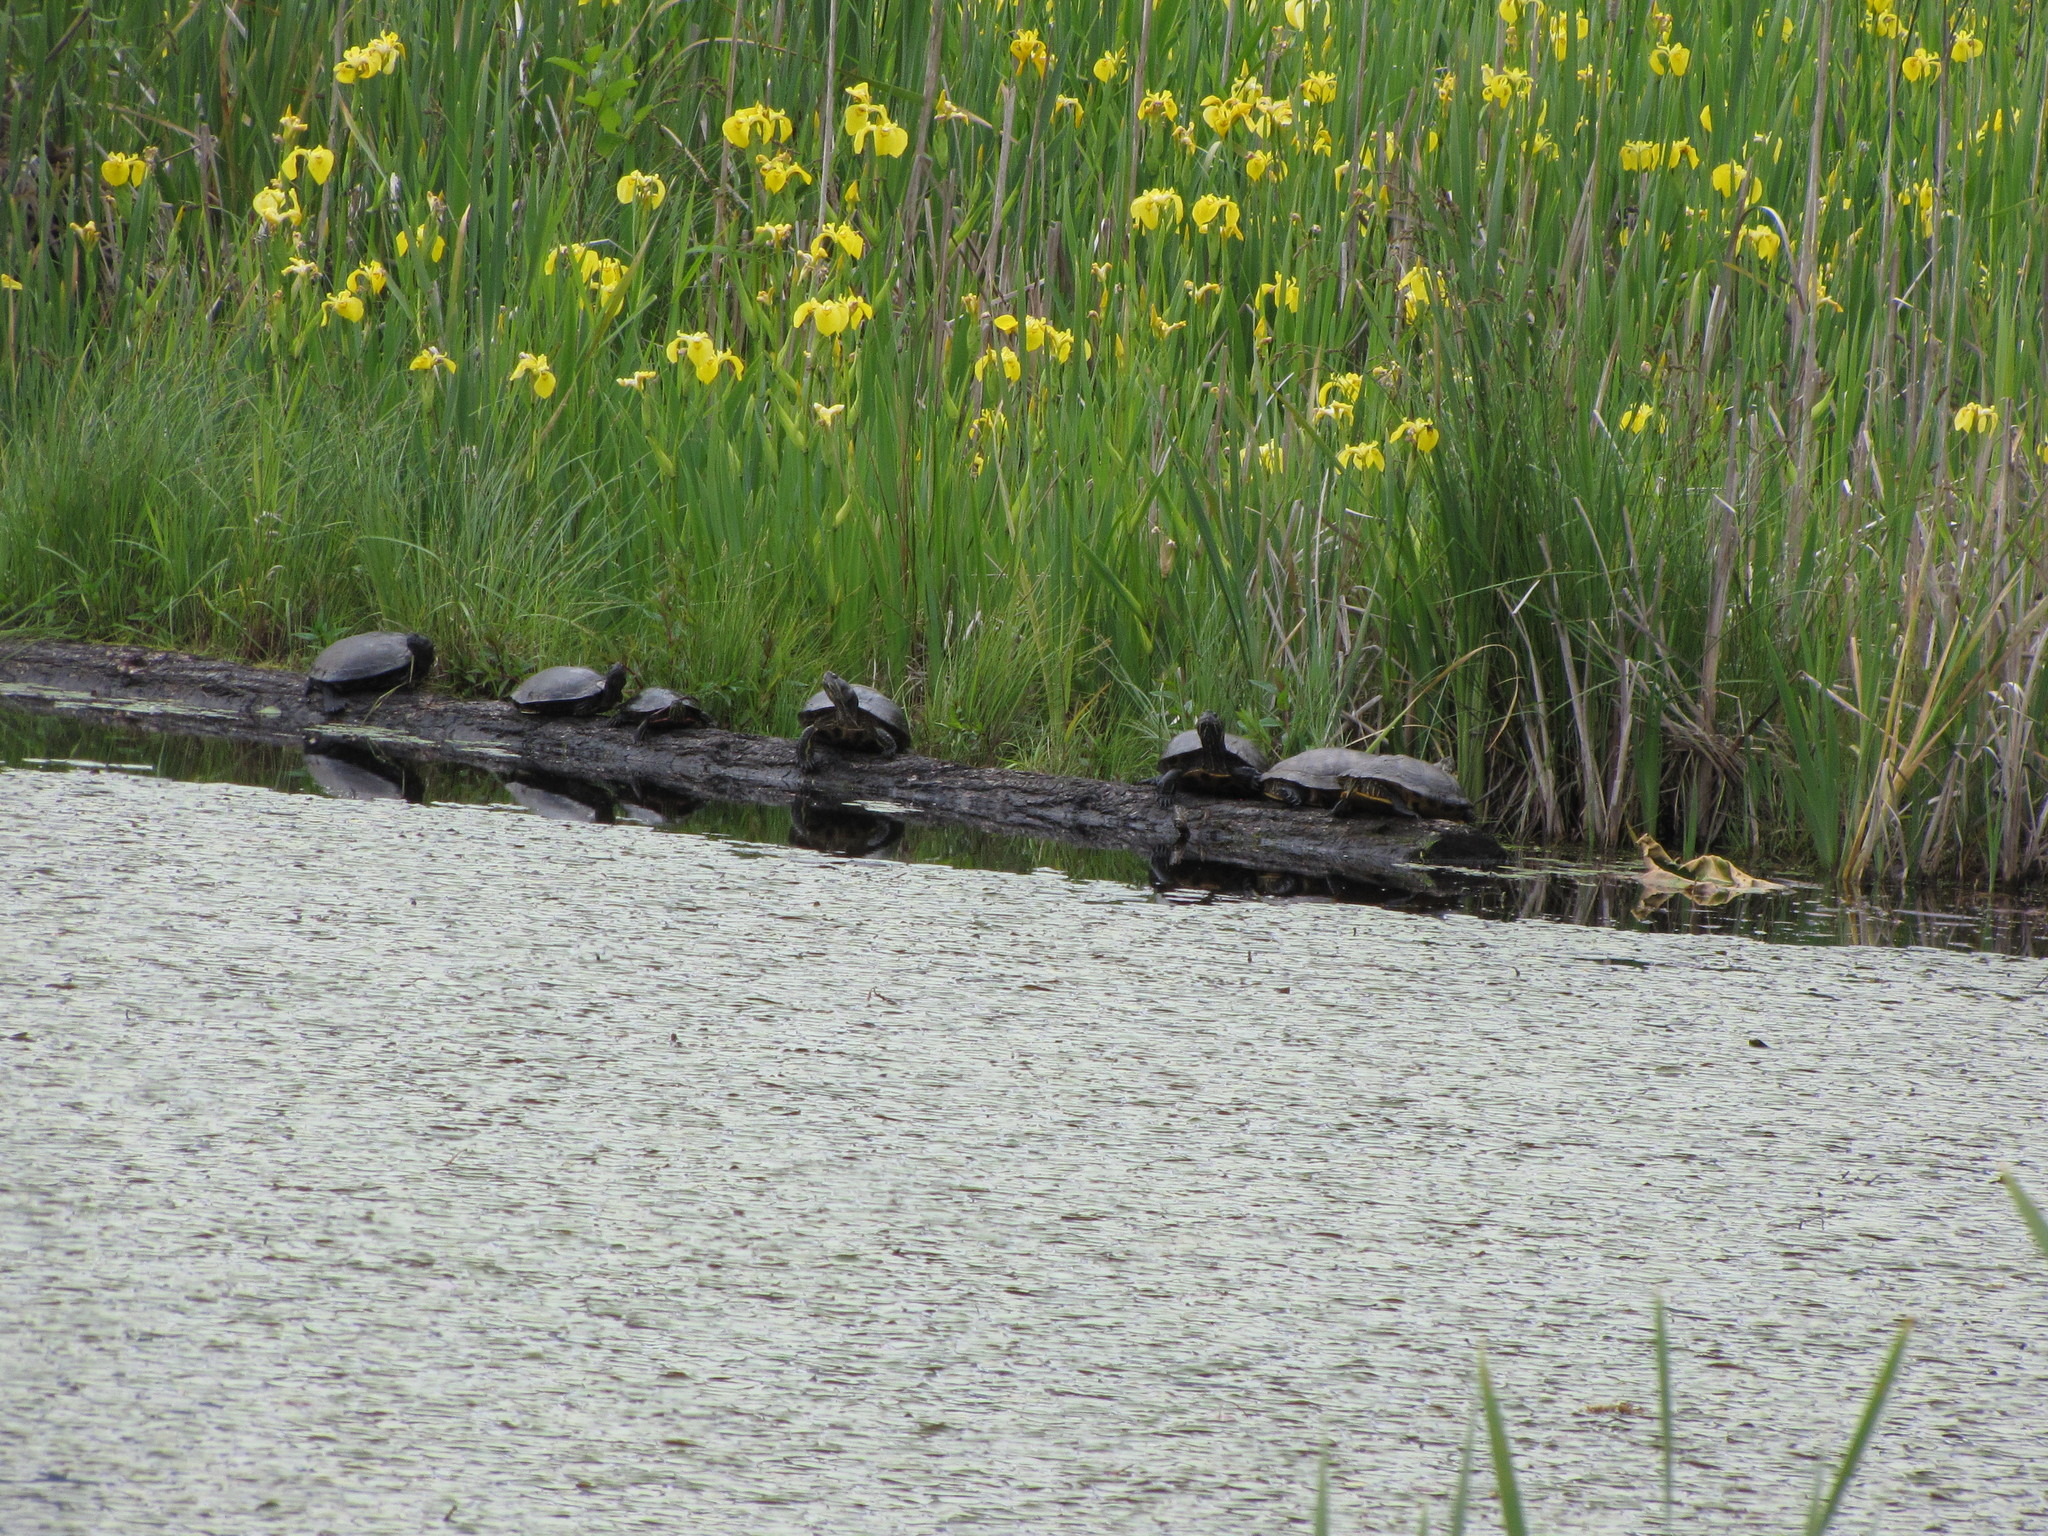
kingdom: Animalia
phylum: Chordata
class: Testudines
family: Emydidae
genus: Trachemys
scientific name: Trachemys scripta
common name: Slider
